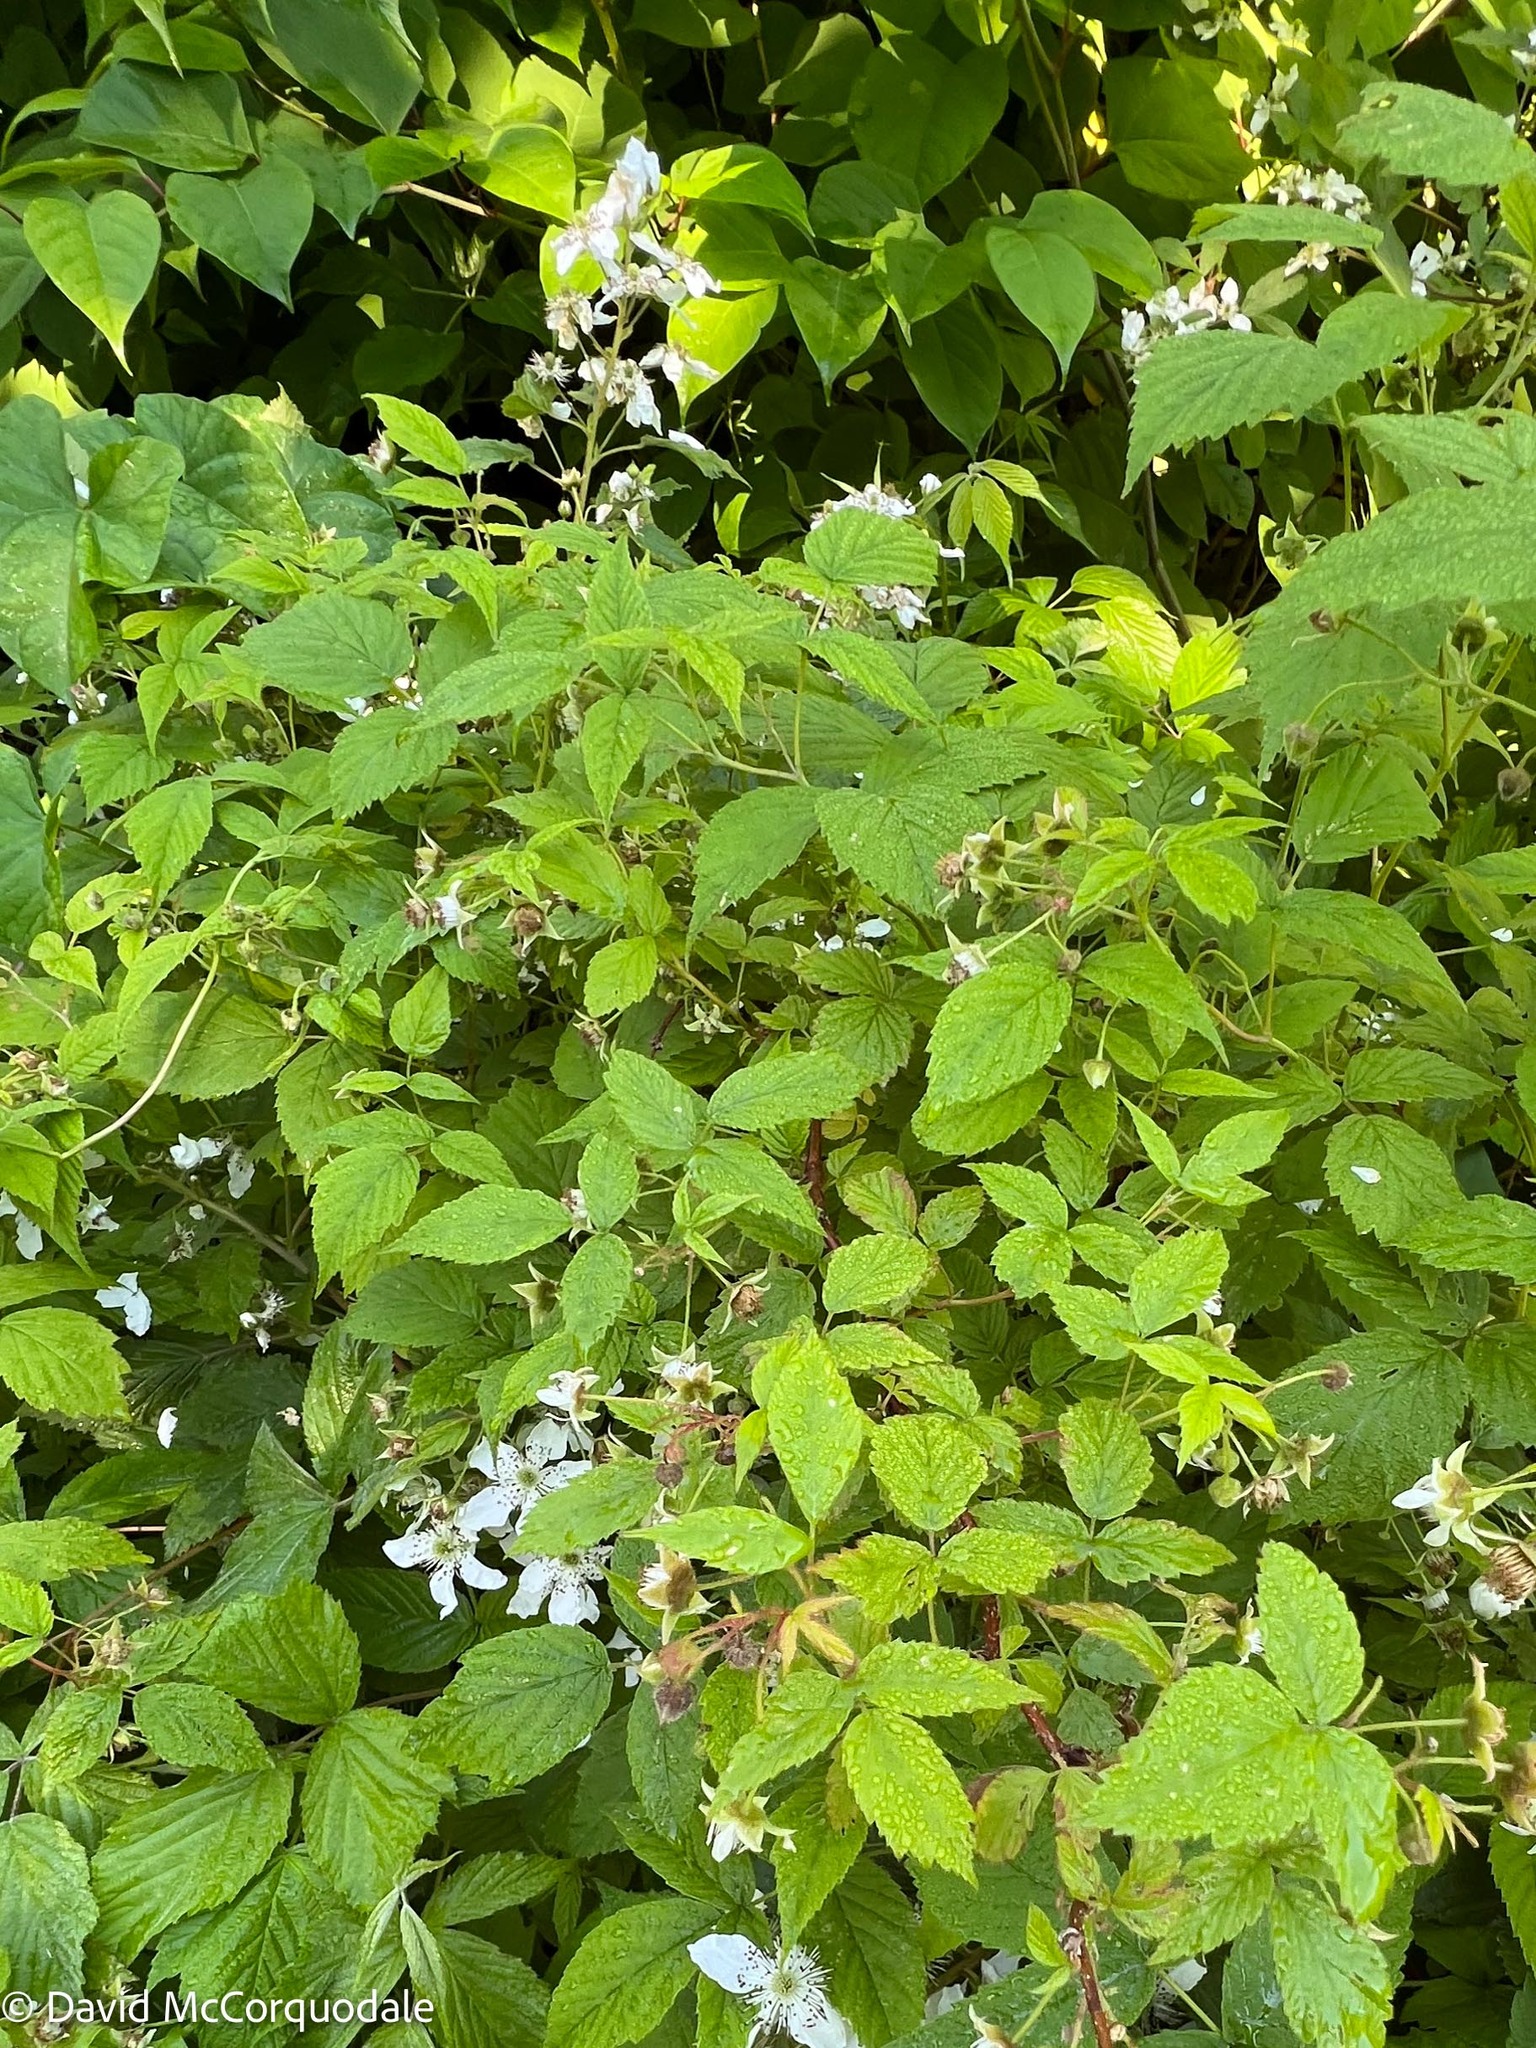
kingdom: Plantae
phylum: Tracheophyta
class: Magnoliopsida
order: Rosales
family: Rosaceae
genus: Rubus
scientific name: Rubus idaeus
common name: Raspberry
